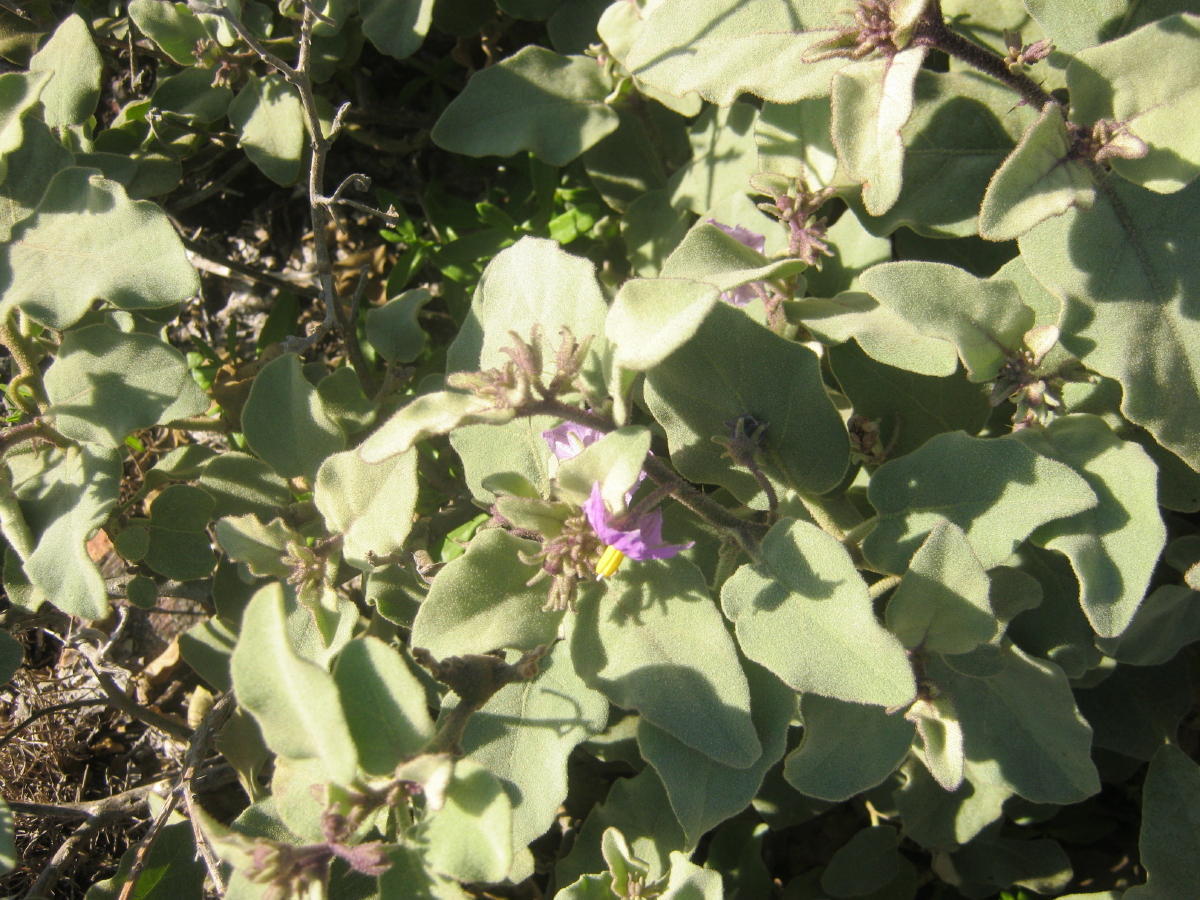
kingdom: Plantae
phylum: Tracheophyta
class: Magnoliopsida
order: Solanales
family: Solanaceae
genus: Solanum
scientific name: Solanum tomentosum
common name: Wild aubergine
